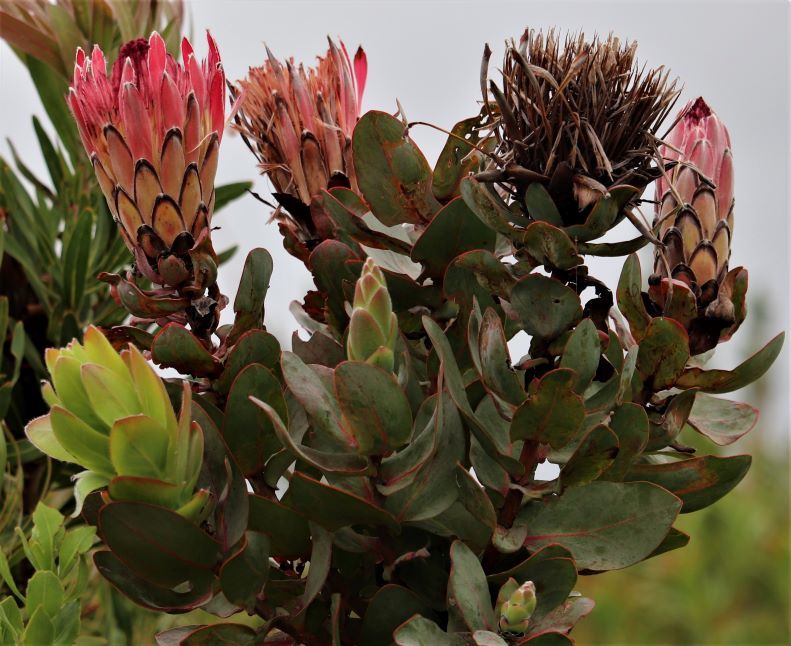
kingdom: Plantae
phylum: Tracheophyta
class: Magnoliopsida
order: Proteales
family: Proteaceae
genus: Protea
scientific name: Protea eximia
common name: Broad-leaved sugarbush
